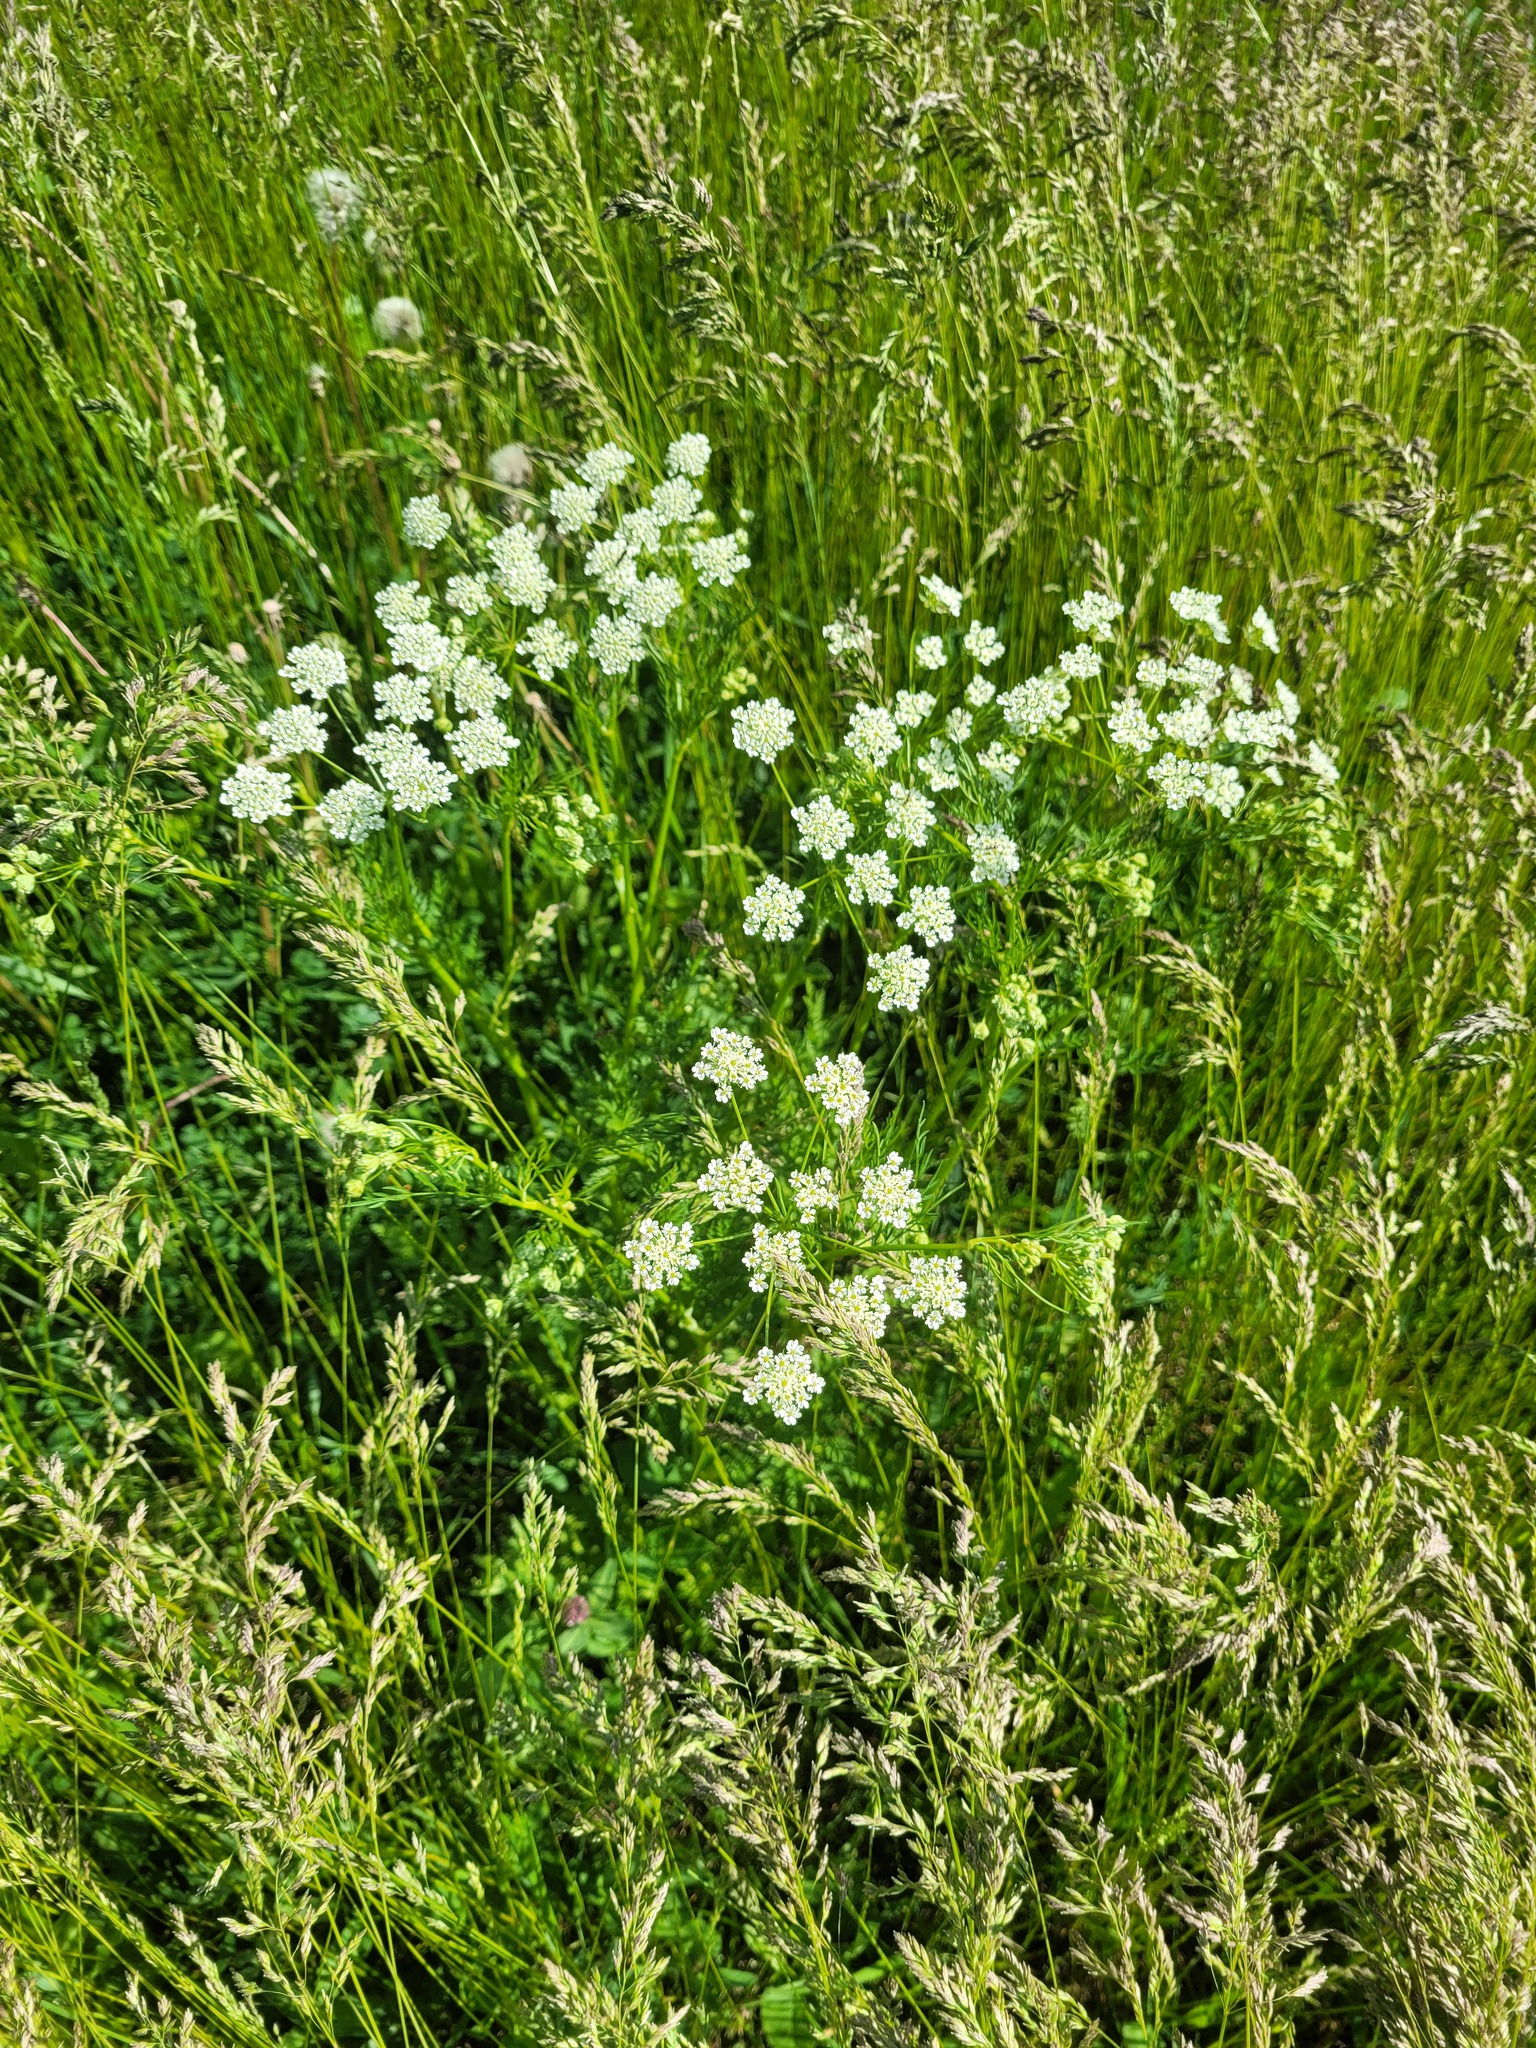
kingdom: Plantae
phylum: Tracheophyta
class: Magnoliopsida
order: Apiales
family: Apiaceae
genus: Chaerophyllum
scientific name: Chaerophyllum prescottii
